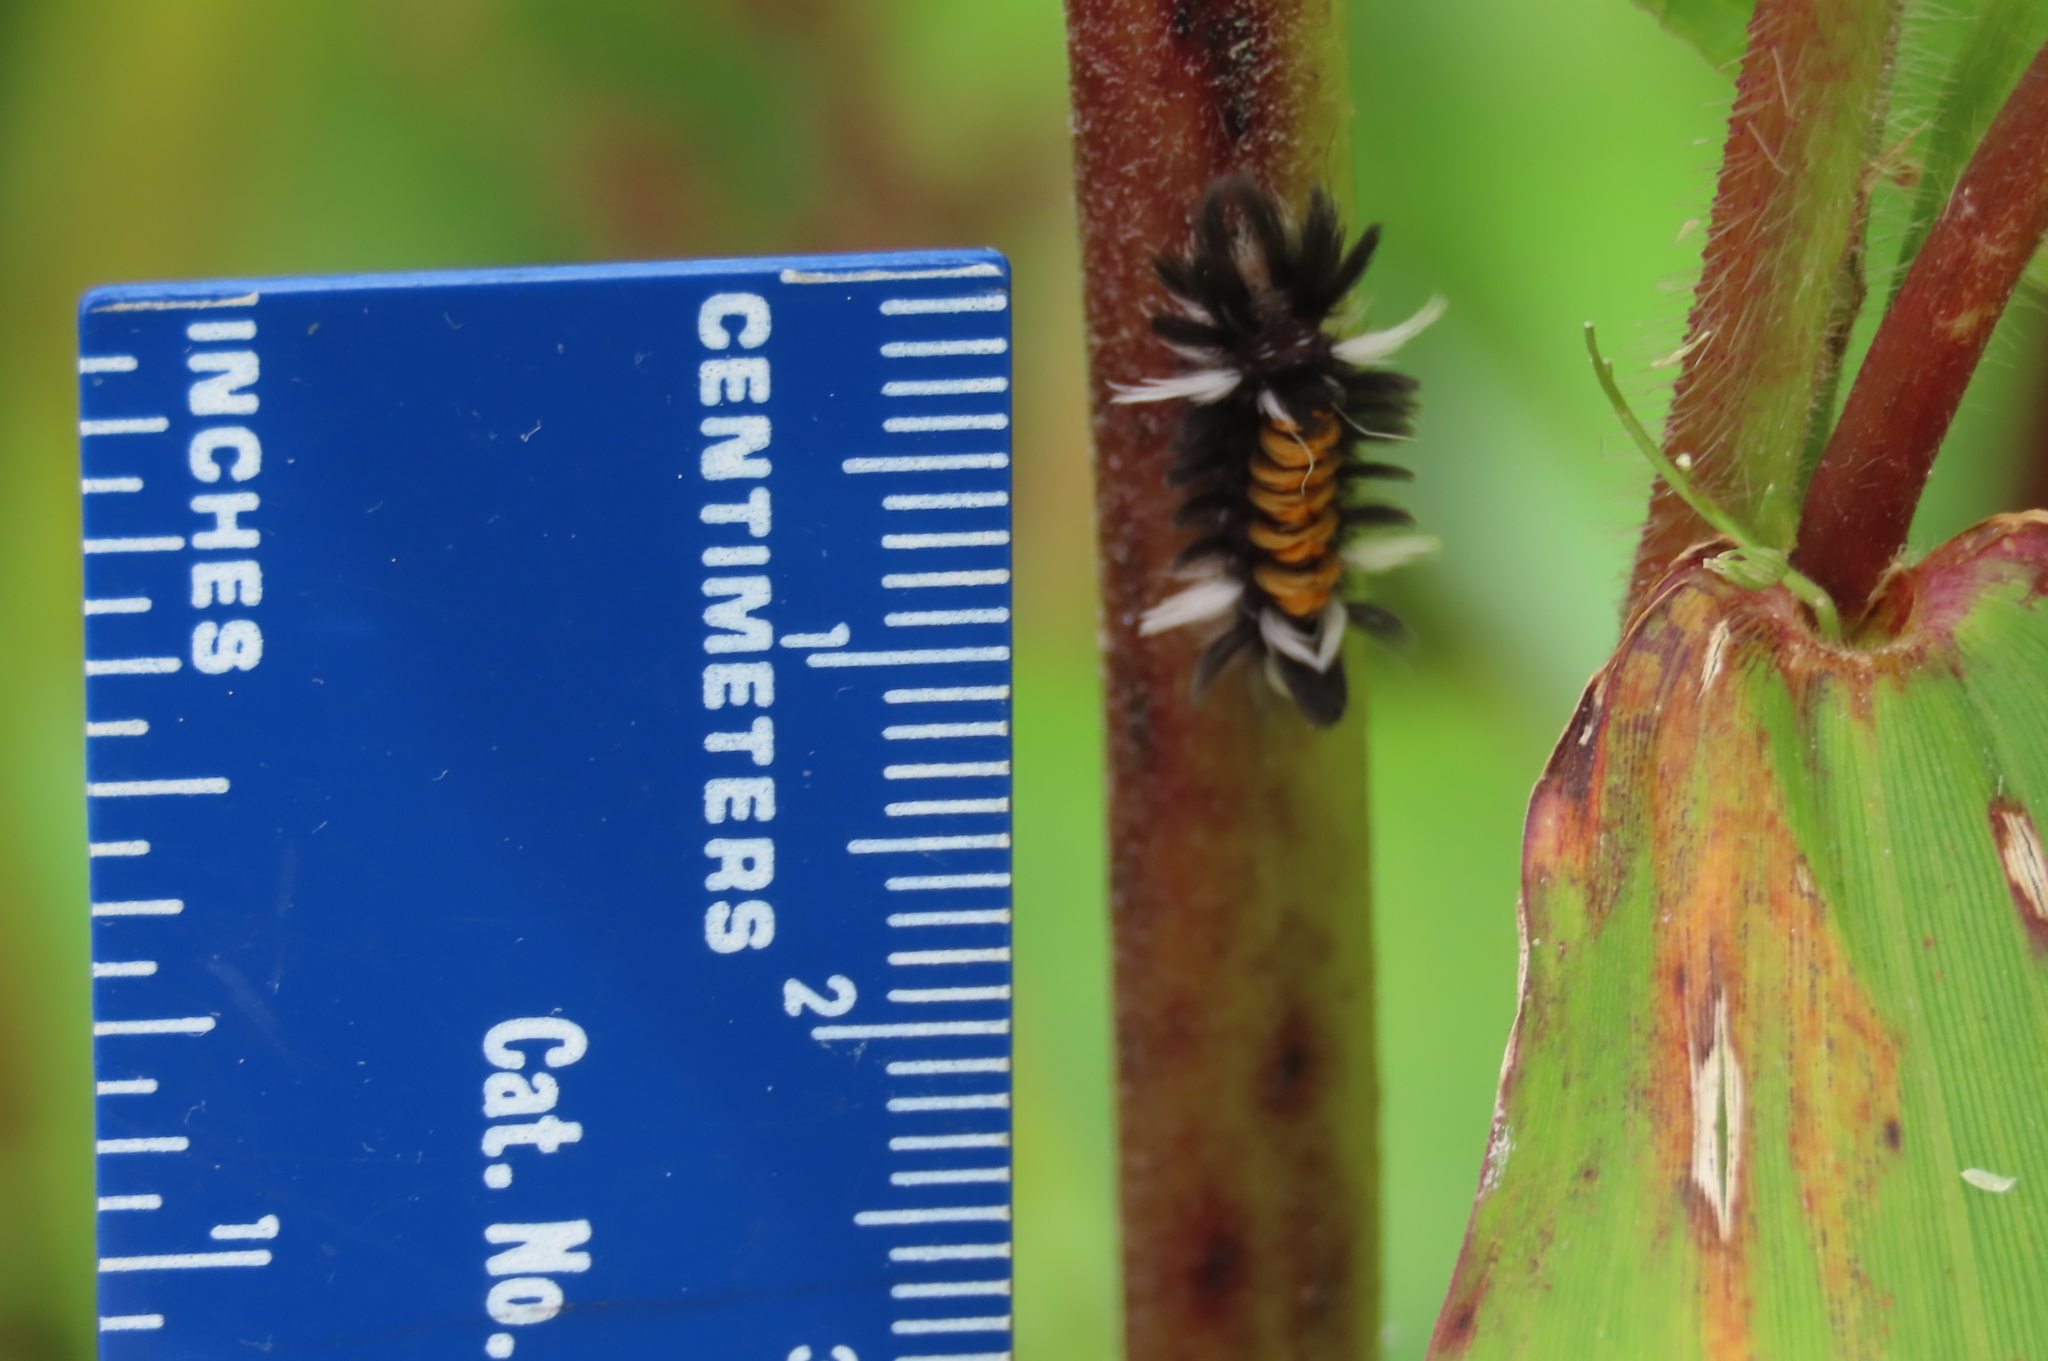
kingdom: Animalia
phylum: Arthropoda
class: Insecta
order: Lepidoptera
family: Erebidae
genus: Euchaetes
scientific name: Euchaetes egle
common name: Milkweed tussock moth
